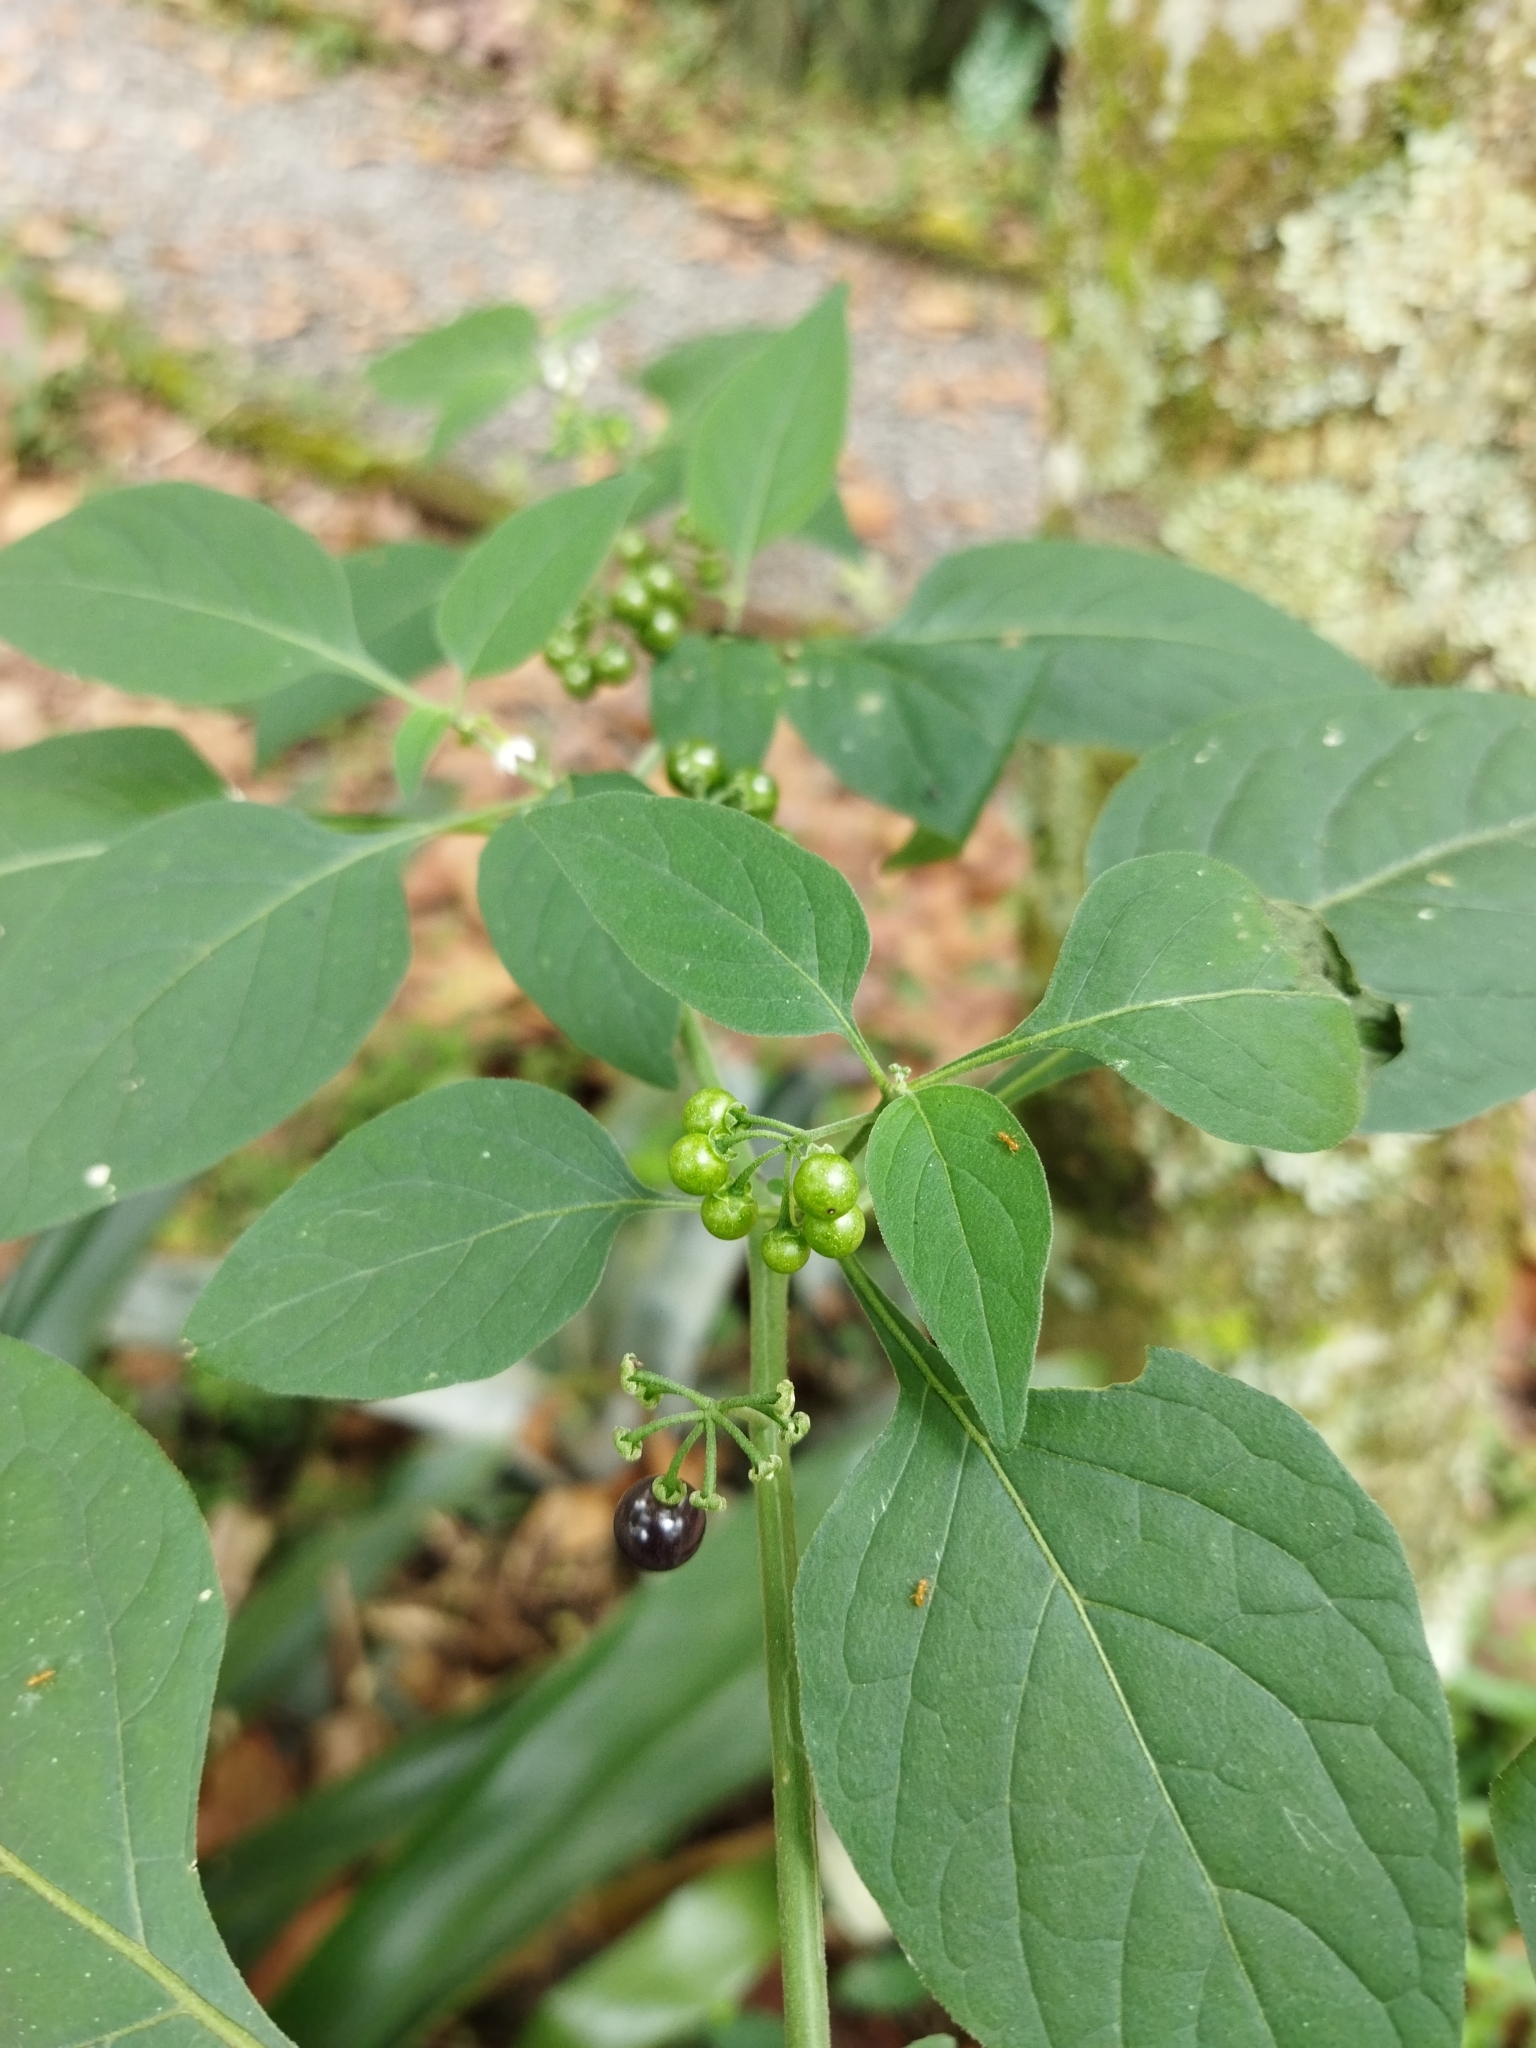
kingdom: Plantae
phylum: Tracheophyta
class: Magnoliopsida
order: Solanales
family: Solanaceae
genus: Solanum
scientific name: Solanum americanum
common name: American black nightshade
